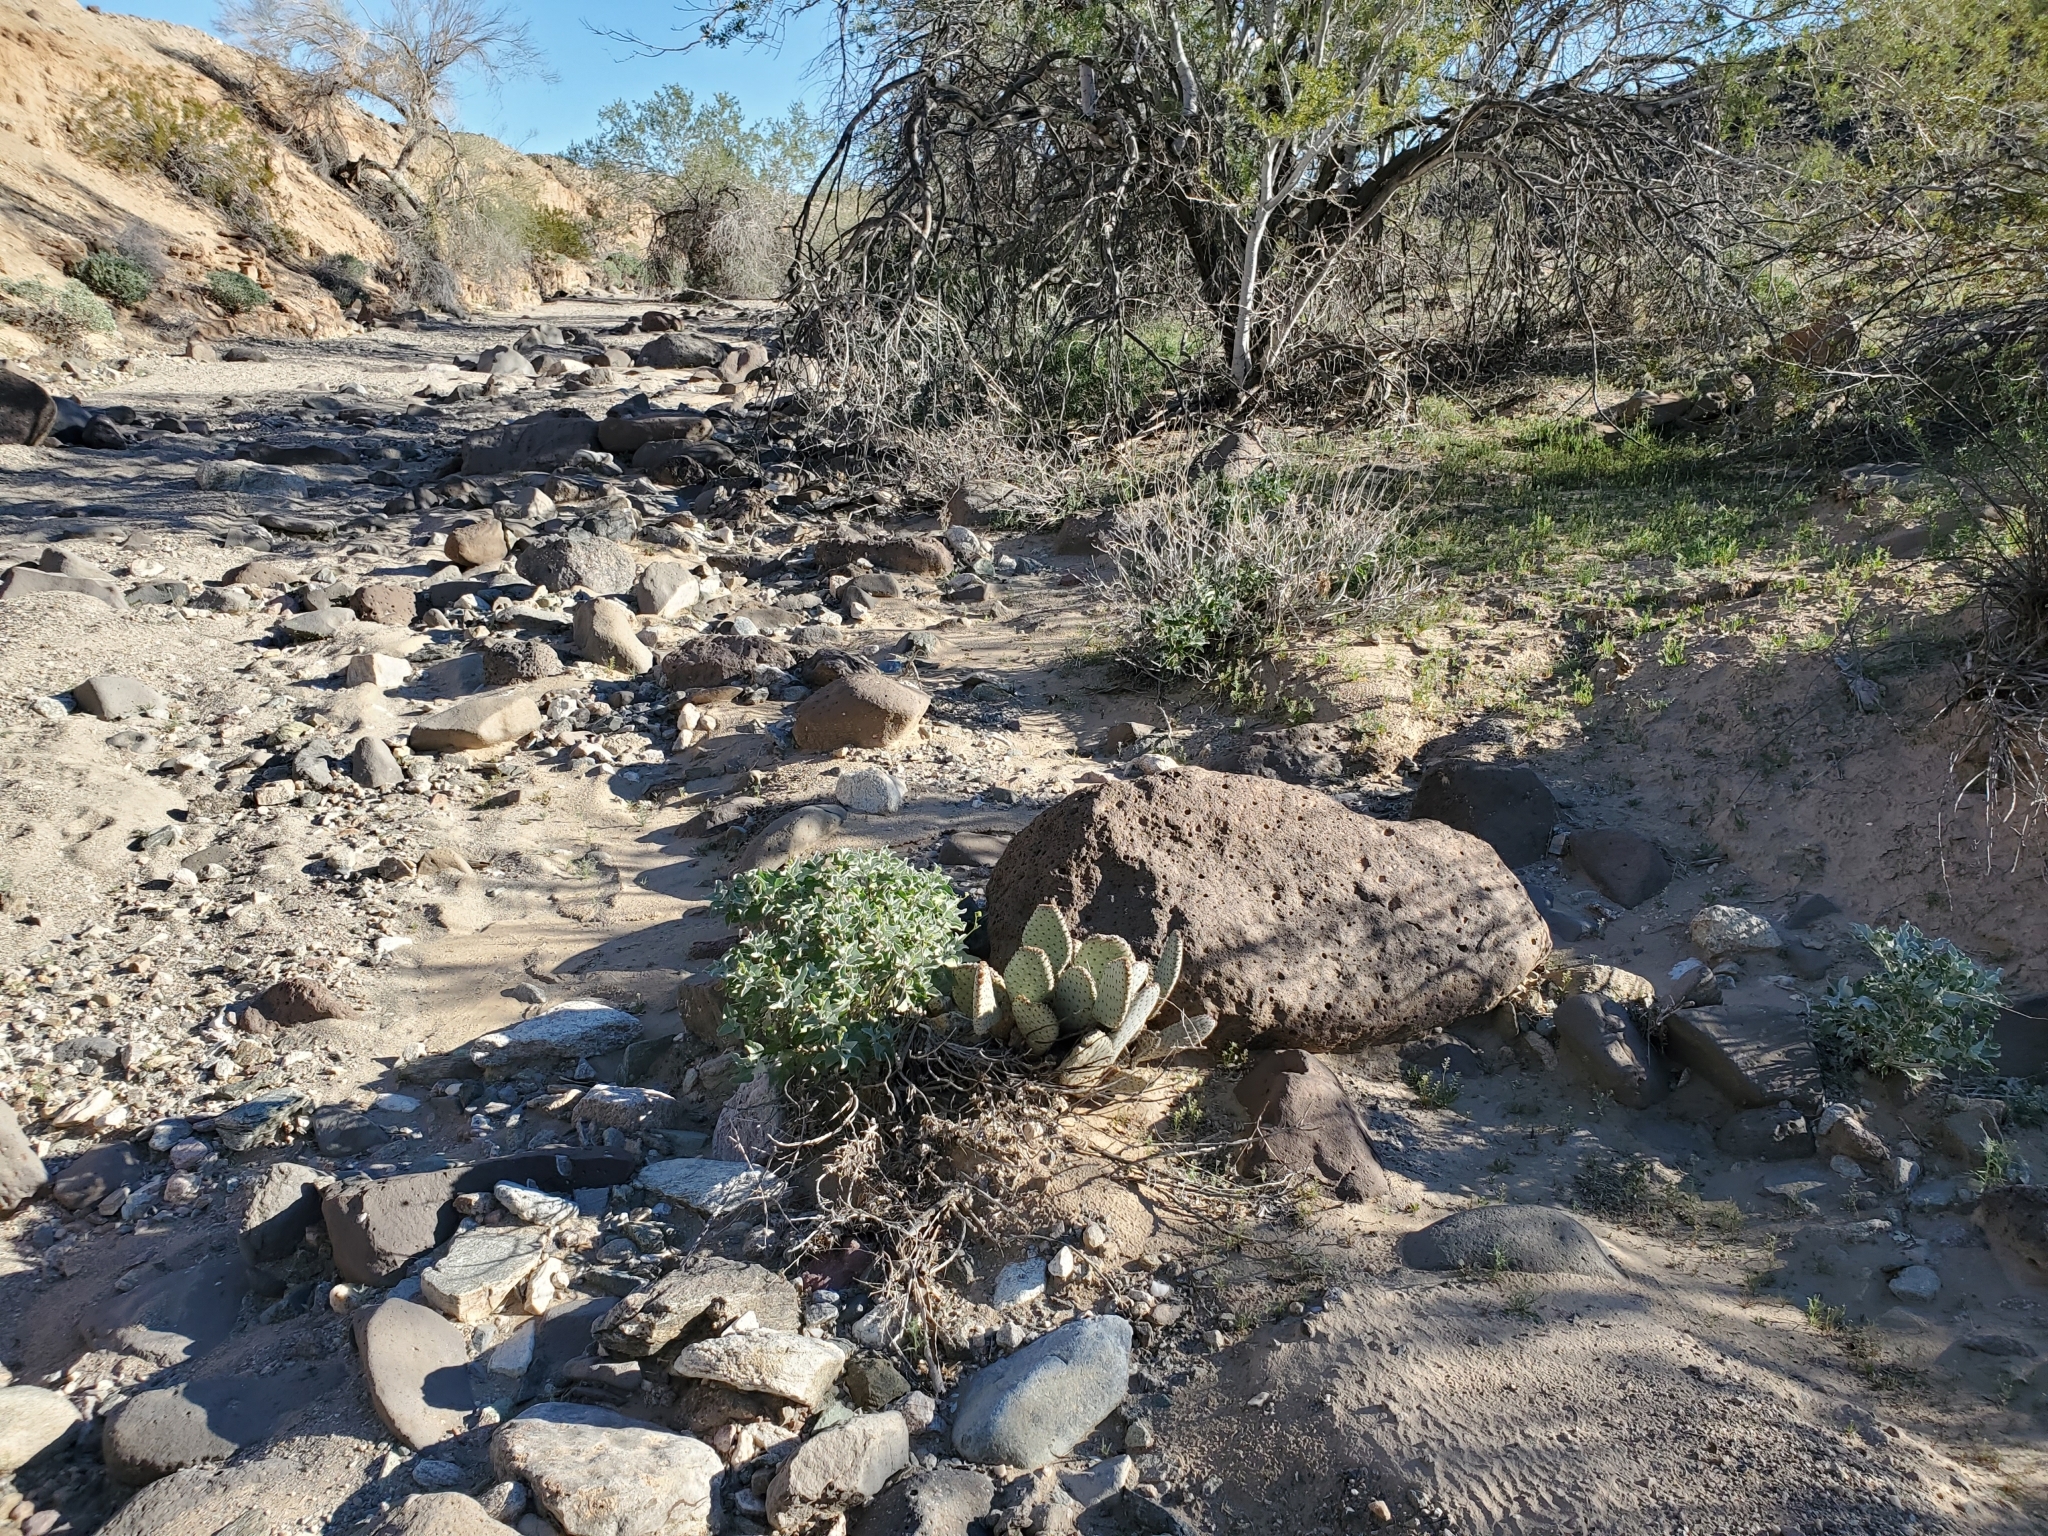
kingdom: Plantae
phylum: Tracheophyta
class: Magnoliopsida
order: Caryophyllales
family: Cactaceae
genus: Opuntia
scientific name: Opuntia basilaris
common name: Beavertail prickly-pear
